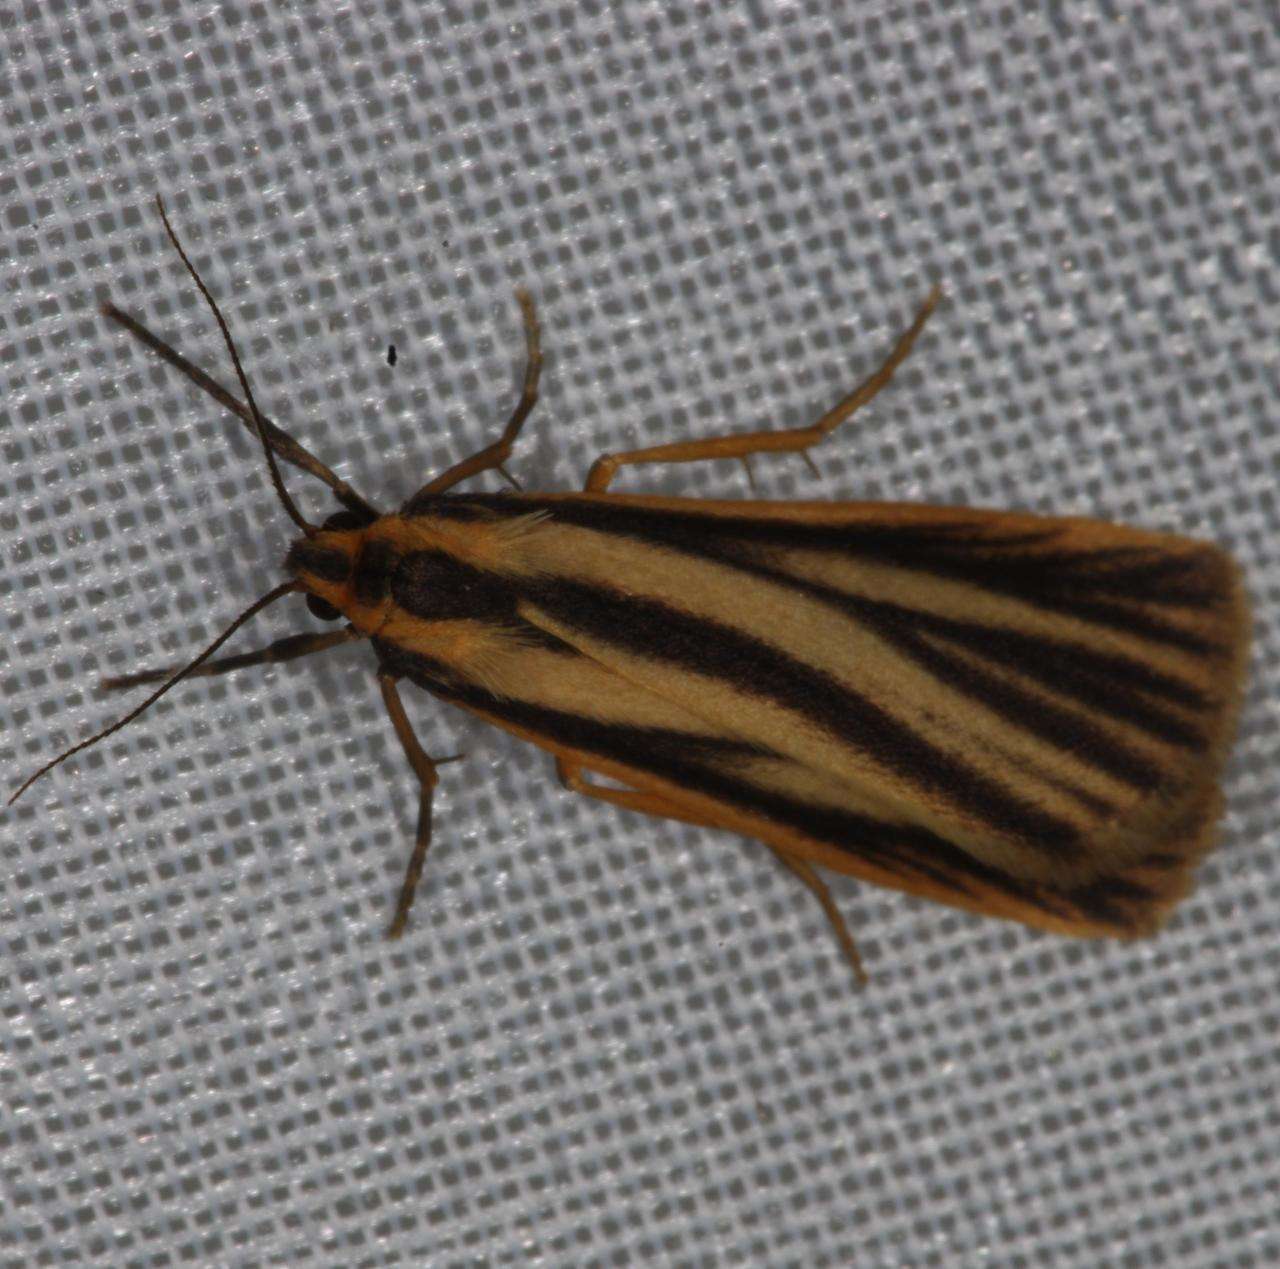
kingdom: Animalia
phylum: Arthropoda
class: Insecta
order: Lepidoptera
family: Erebidae
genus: Phaeophlebosia
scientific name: Phaeophlebosia furcifera
